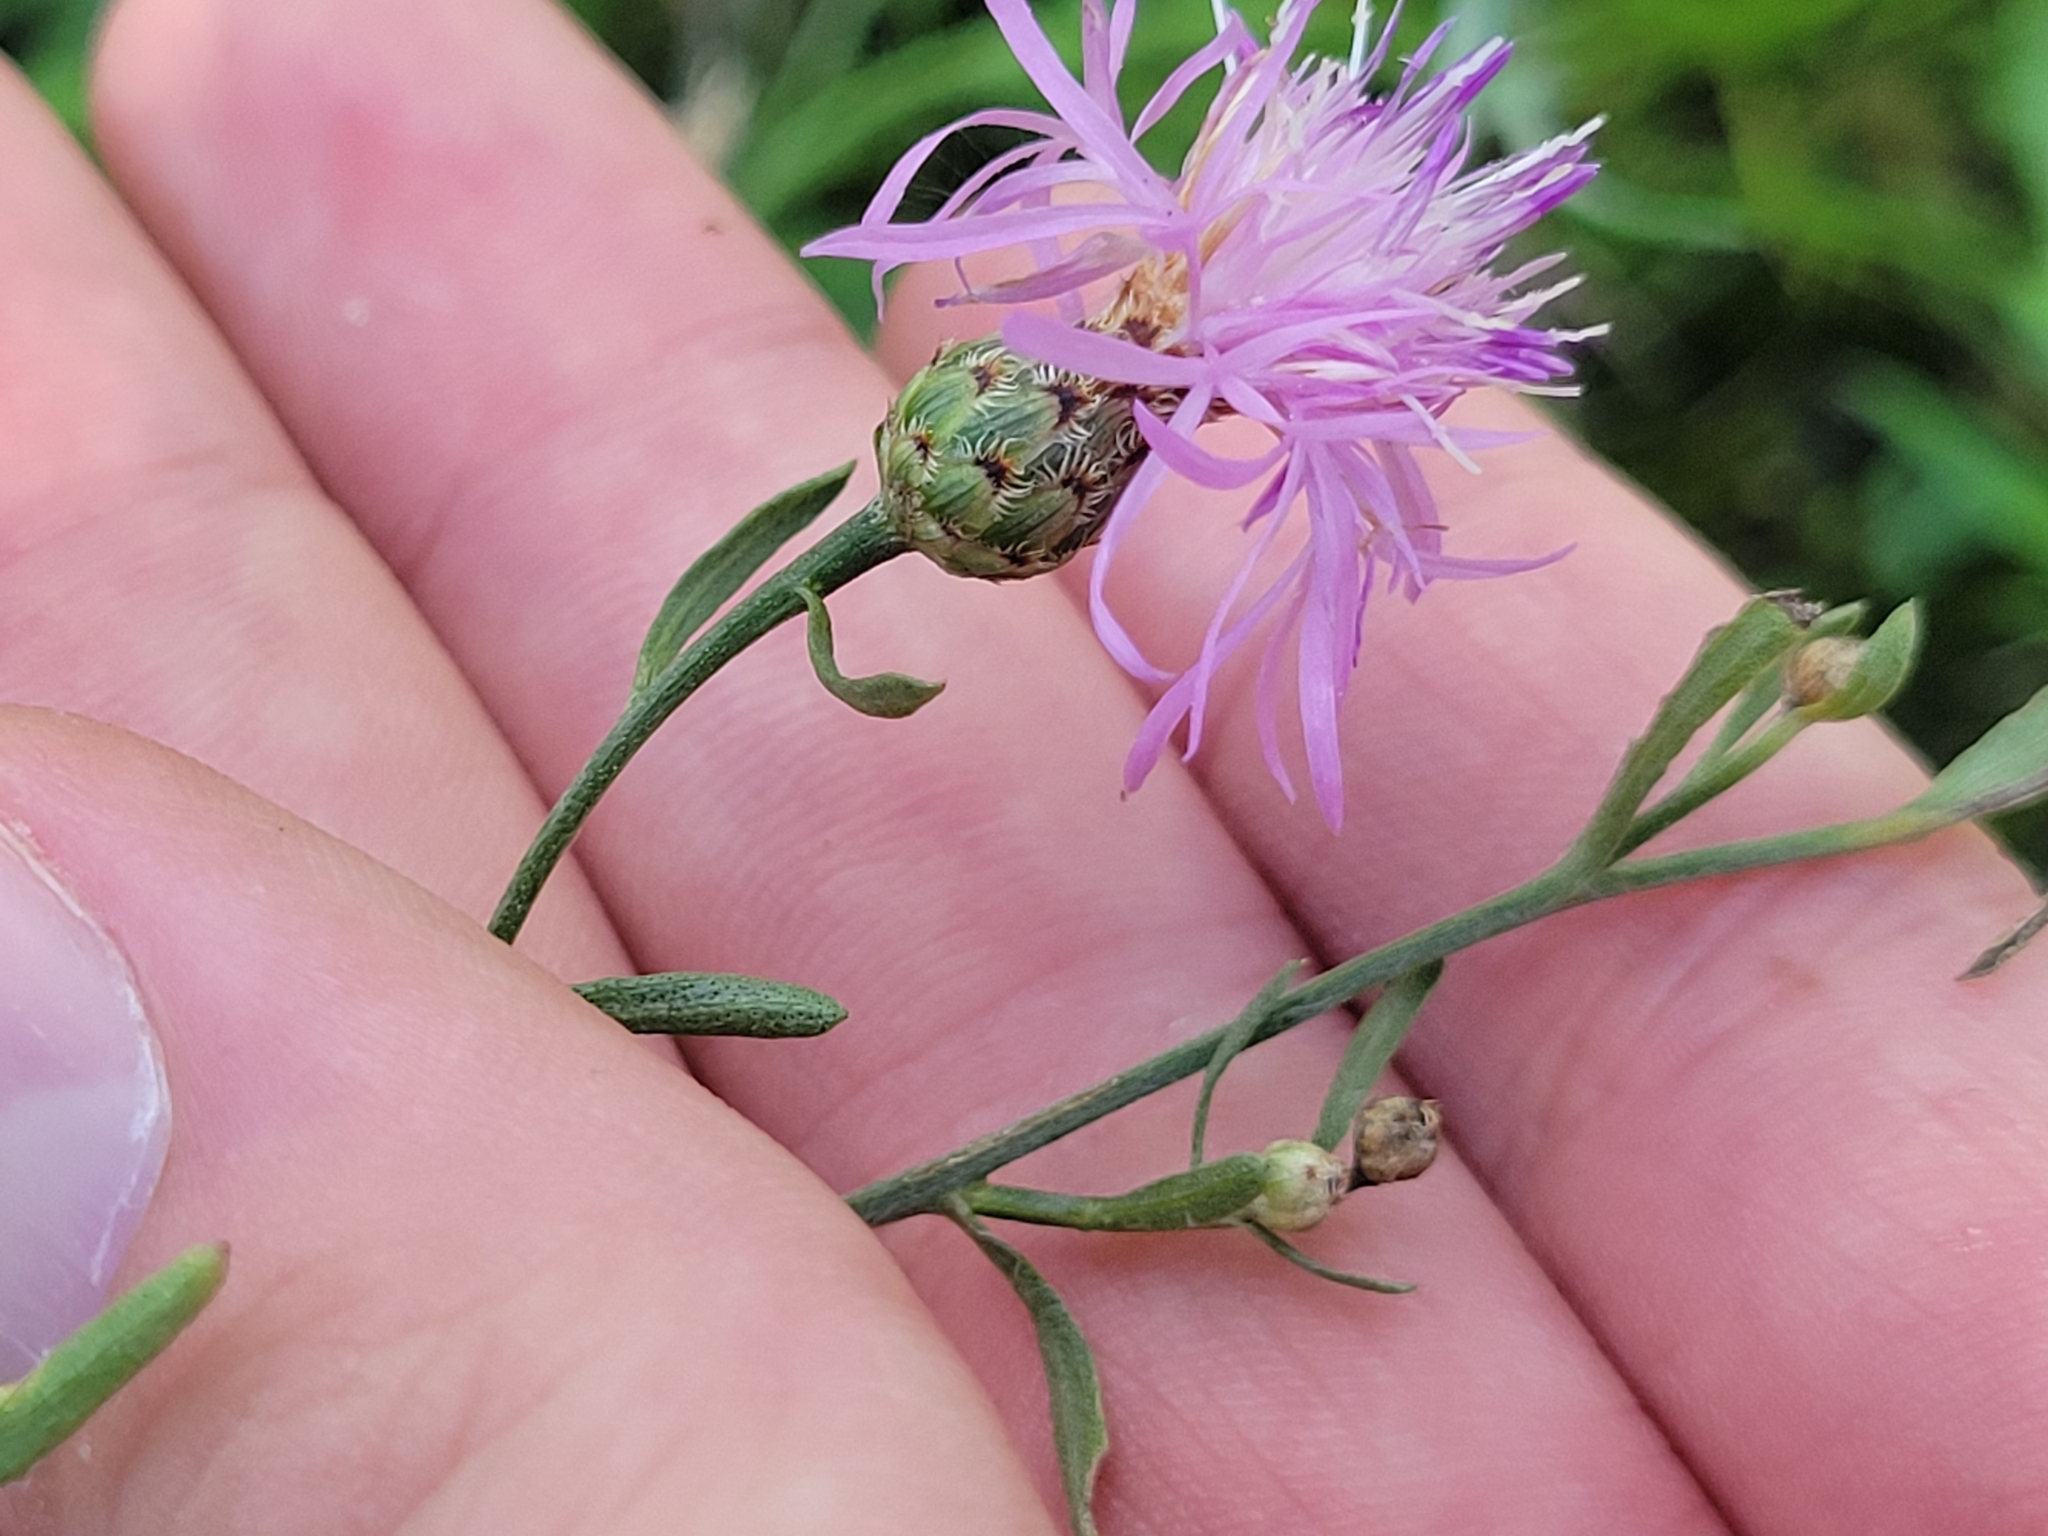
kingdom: Plantae
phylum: Tracheophyta
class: Magnoliopsida
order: Asterales
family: Asteraceae
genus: Centaurea
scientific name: Centaurea stoebe
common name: Spotted knapweed
